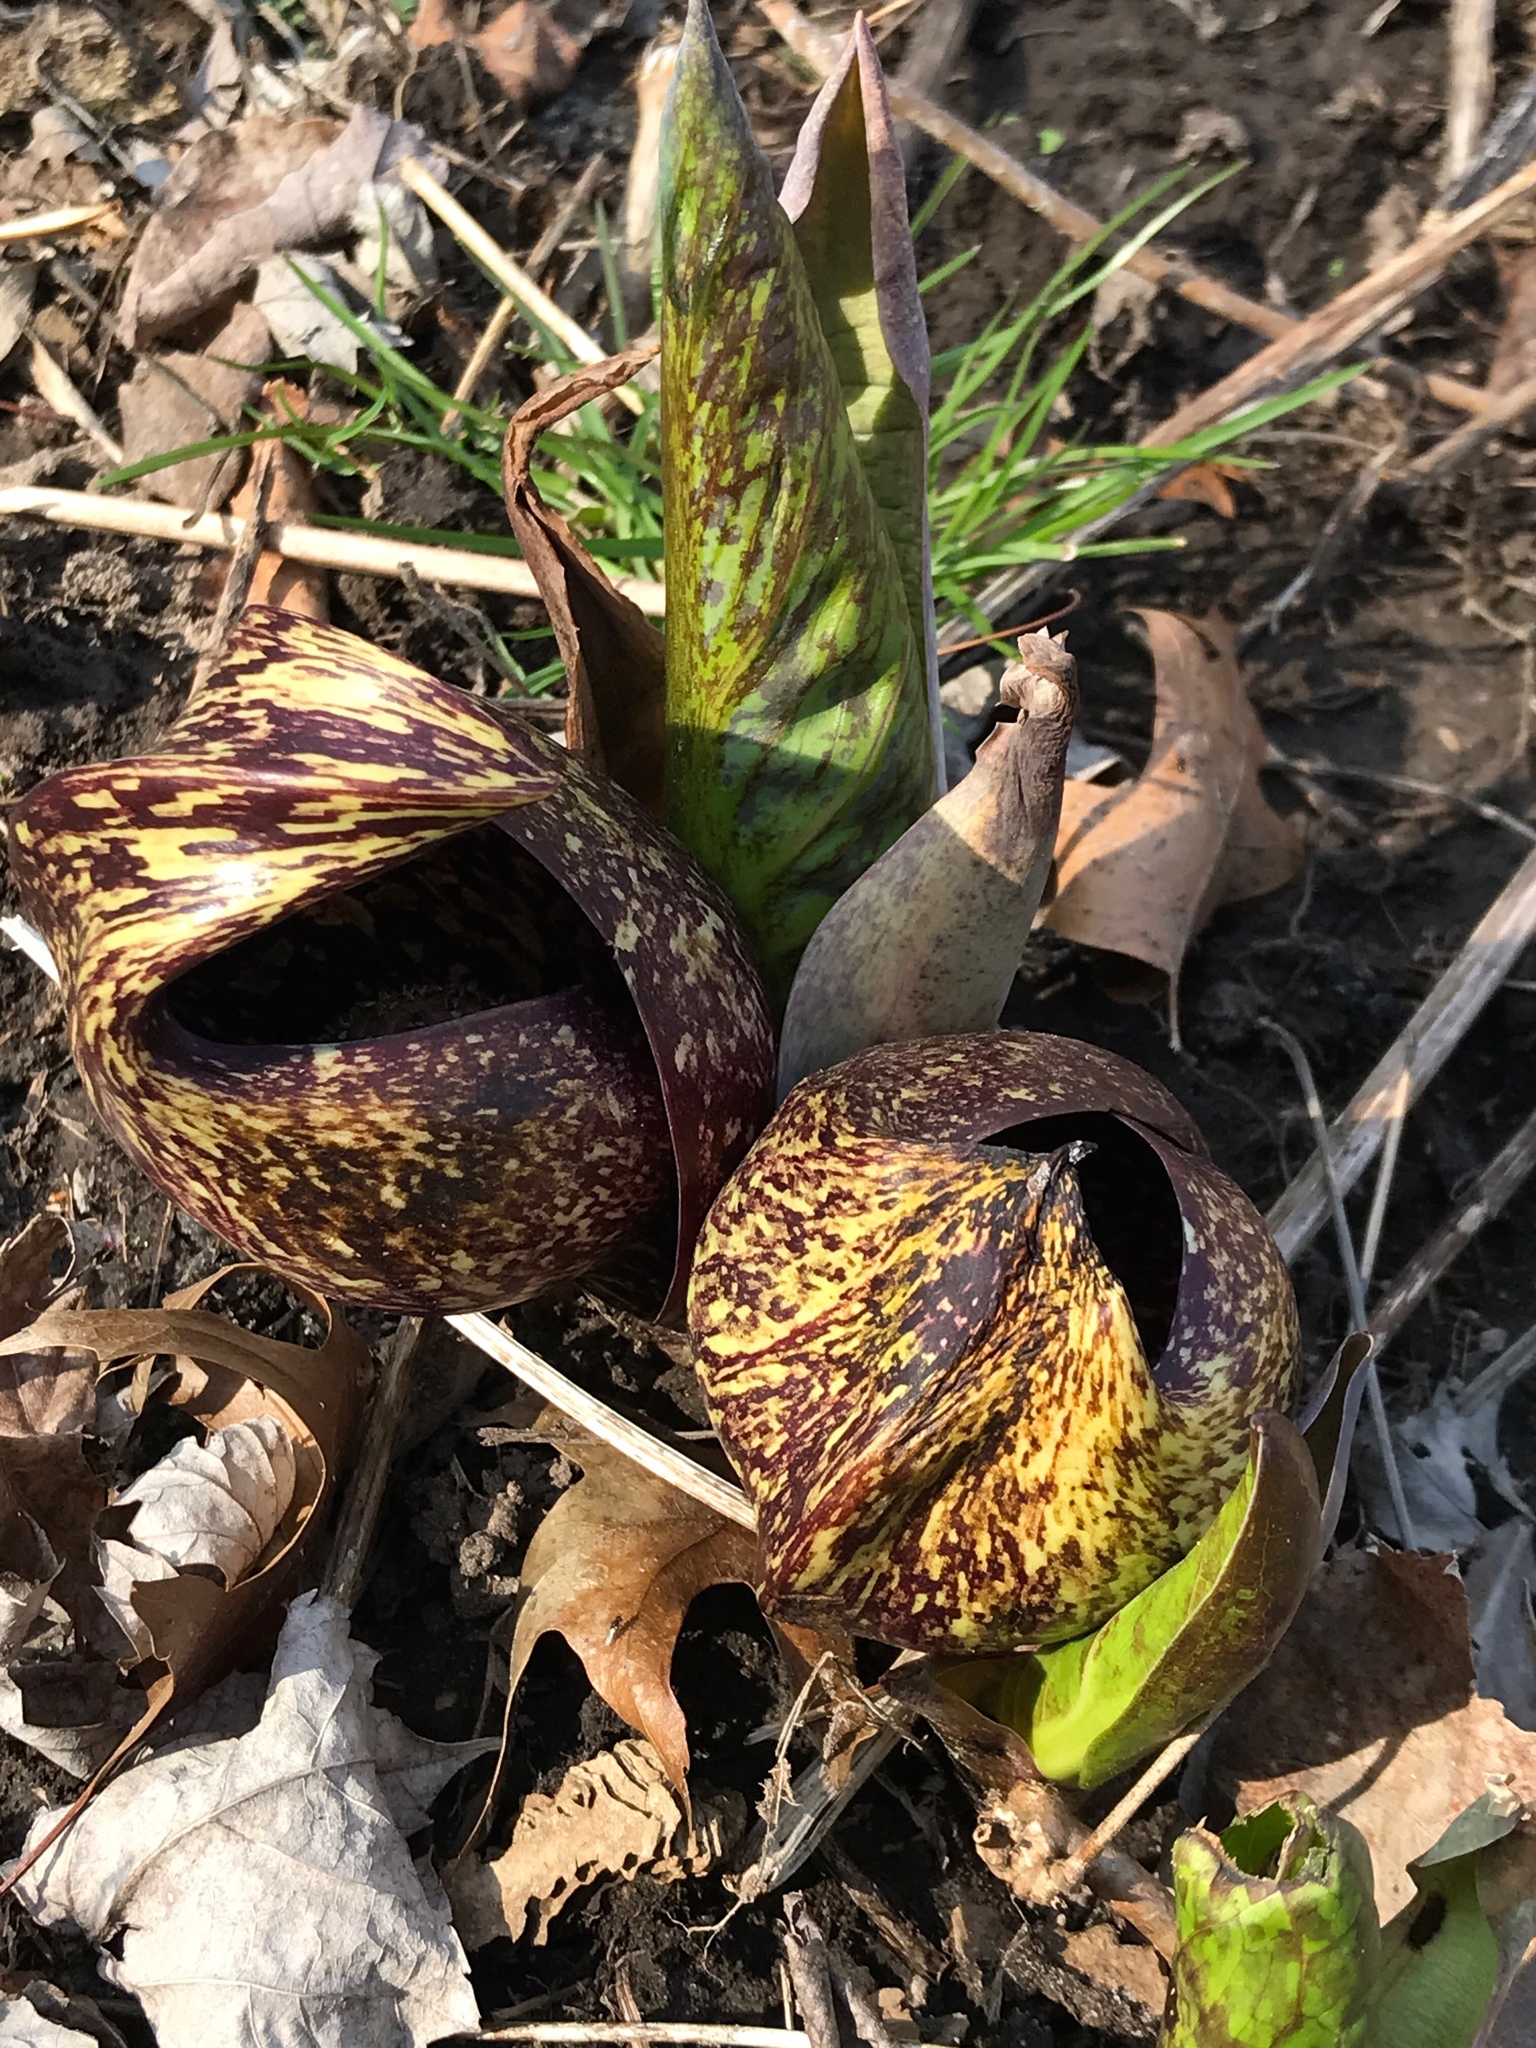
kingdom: Plantae
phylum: Tracheophyta
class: Liliopsida
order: Alismatales
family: Araceae
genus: Symplocarpus
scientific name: Symplocarpus foetidus
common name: Eastern skunk cabbage
